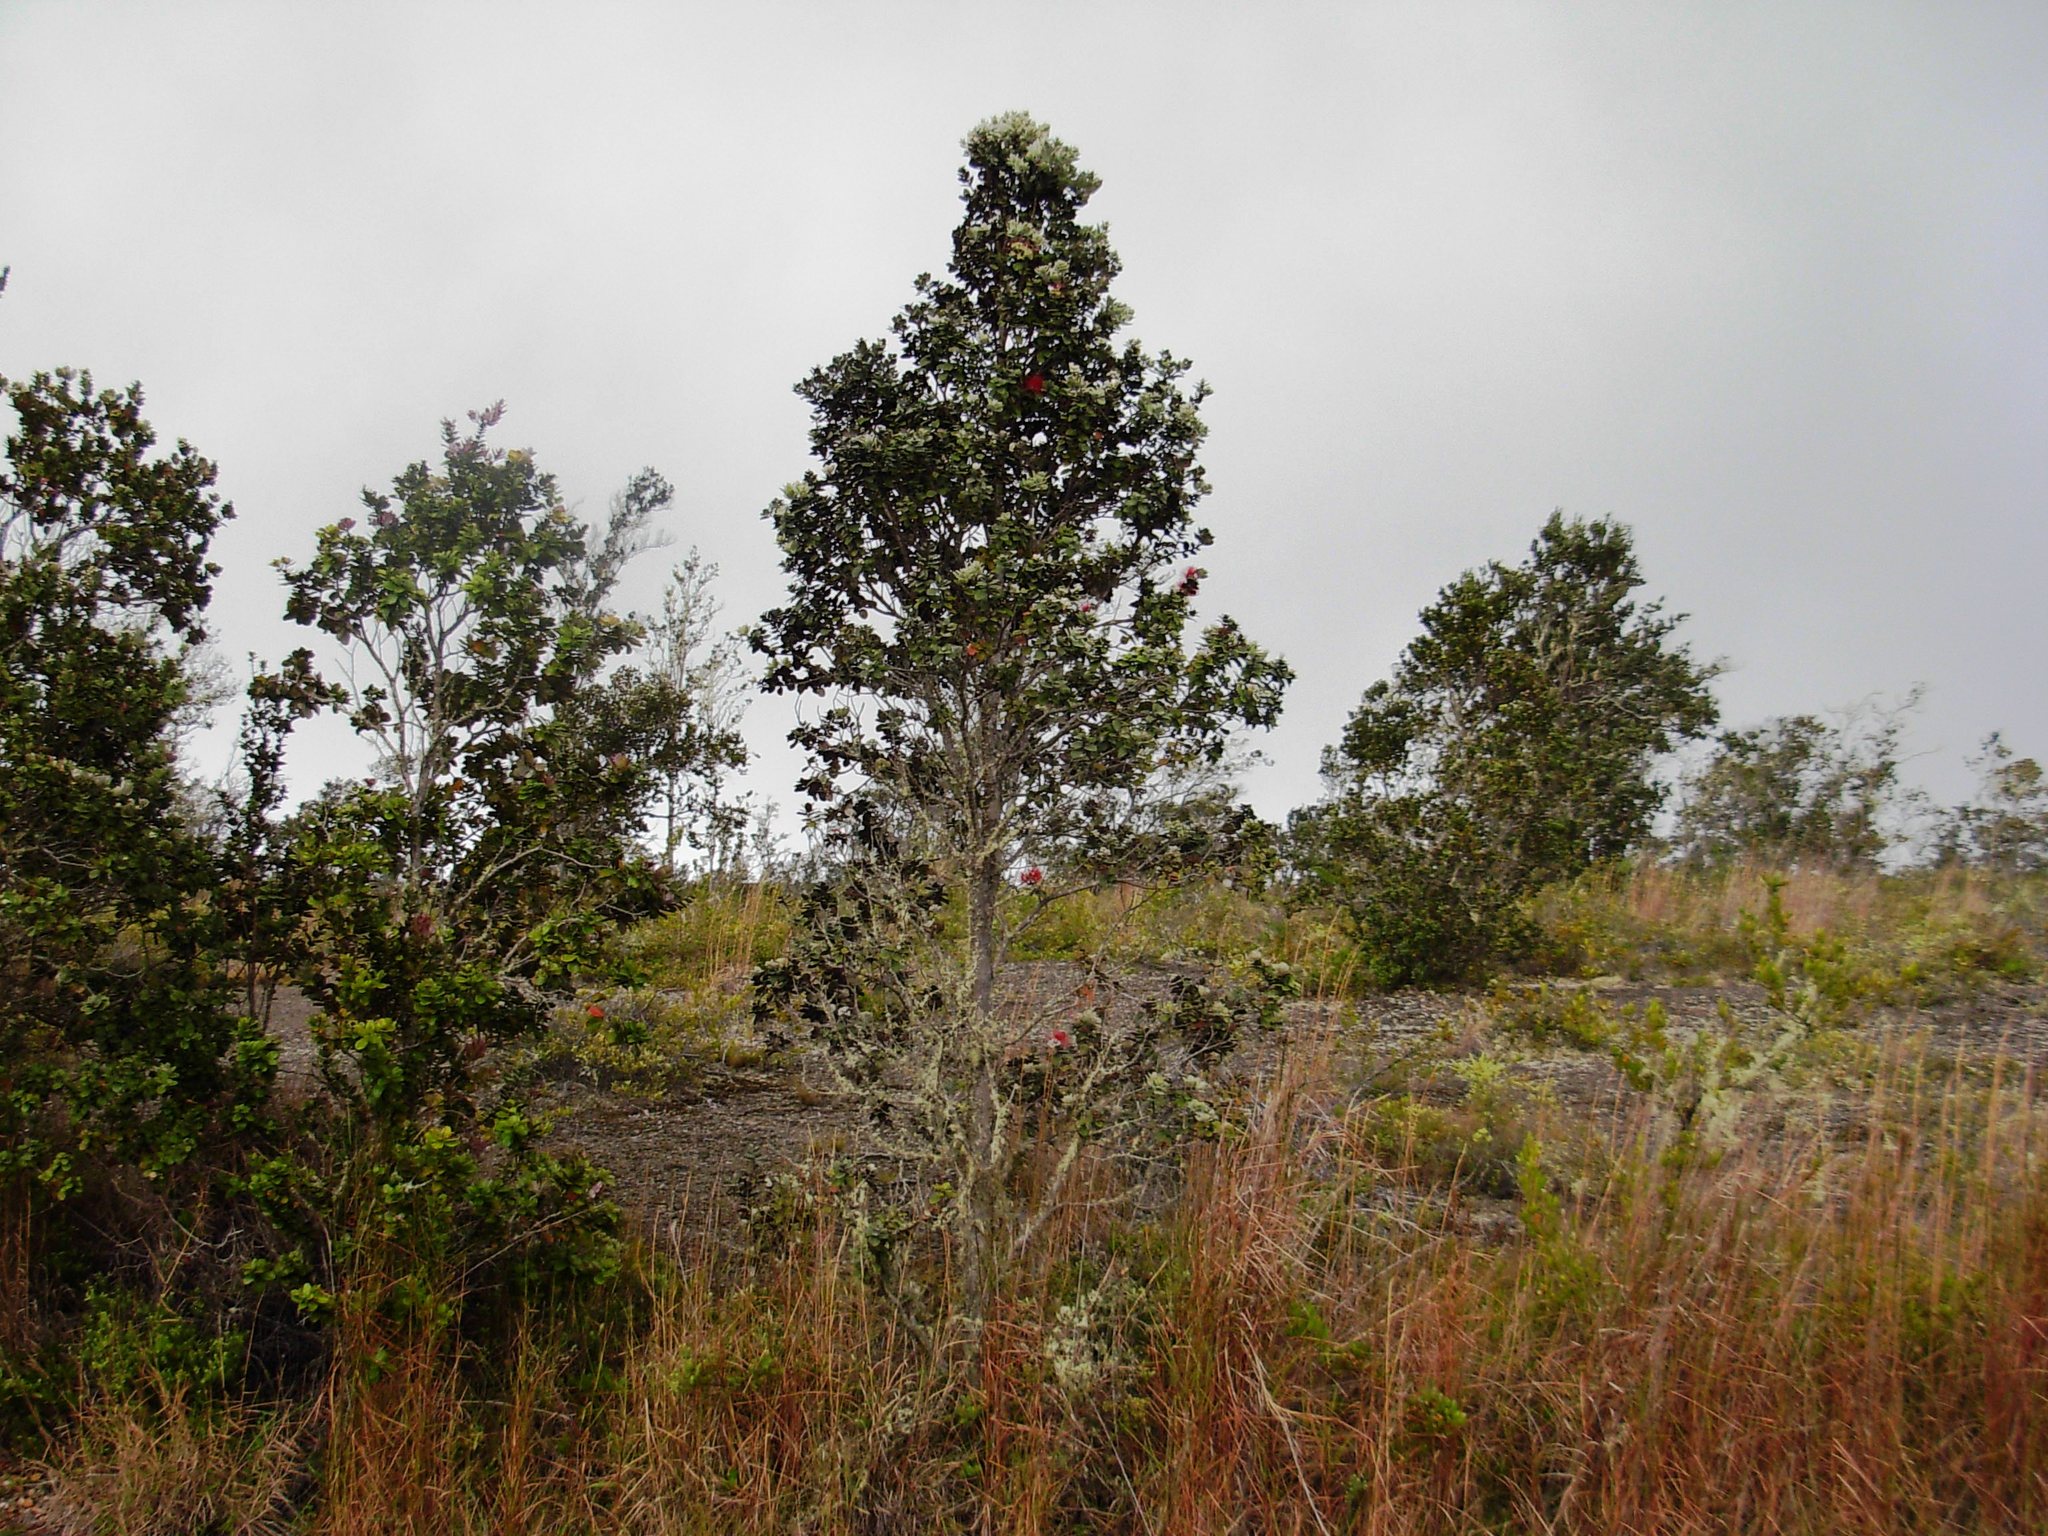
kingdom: Plantae
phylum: Tracheophyta
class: Magnoliopsida
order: Myrtales
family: Myrtaceae
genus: Metrosideros
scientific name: Metrosideros polymorpha
